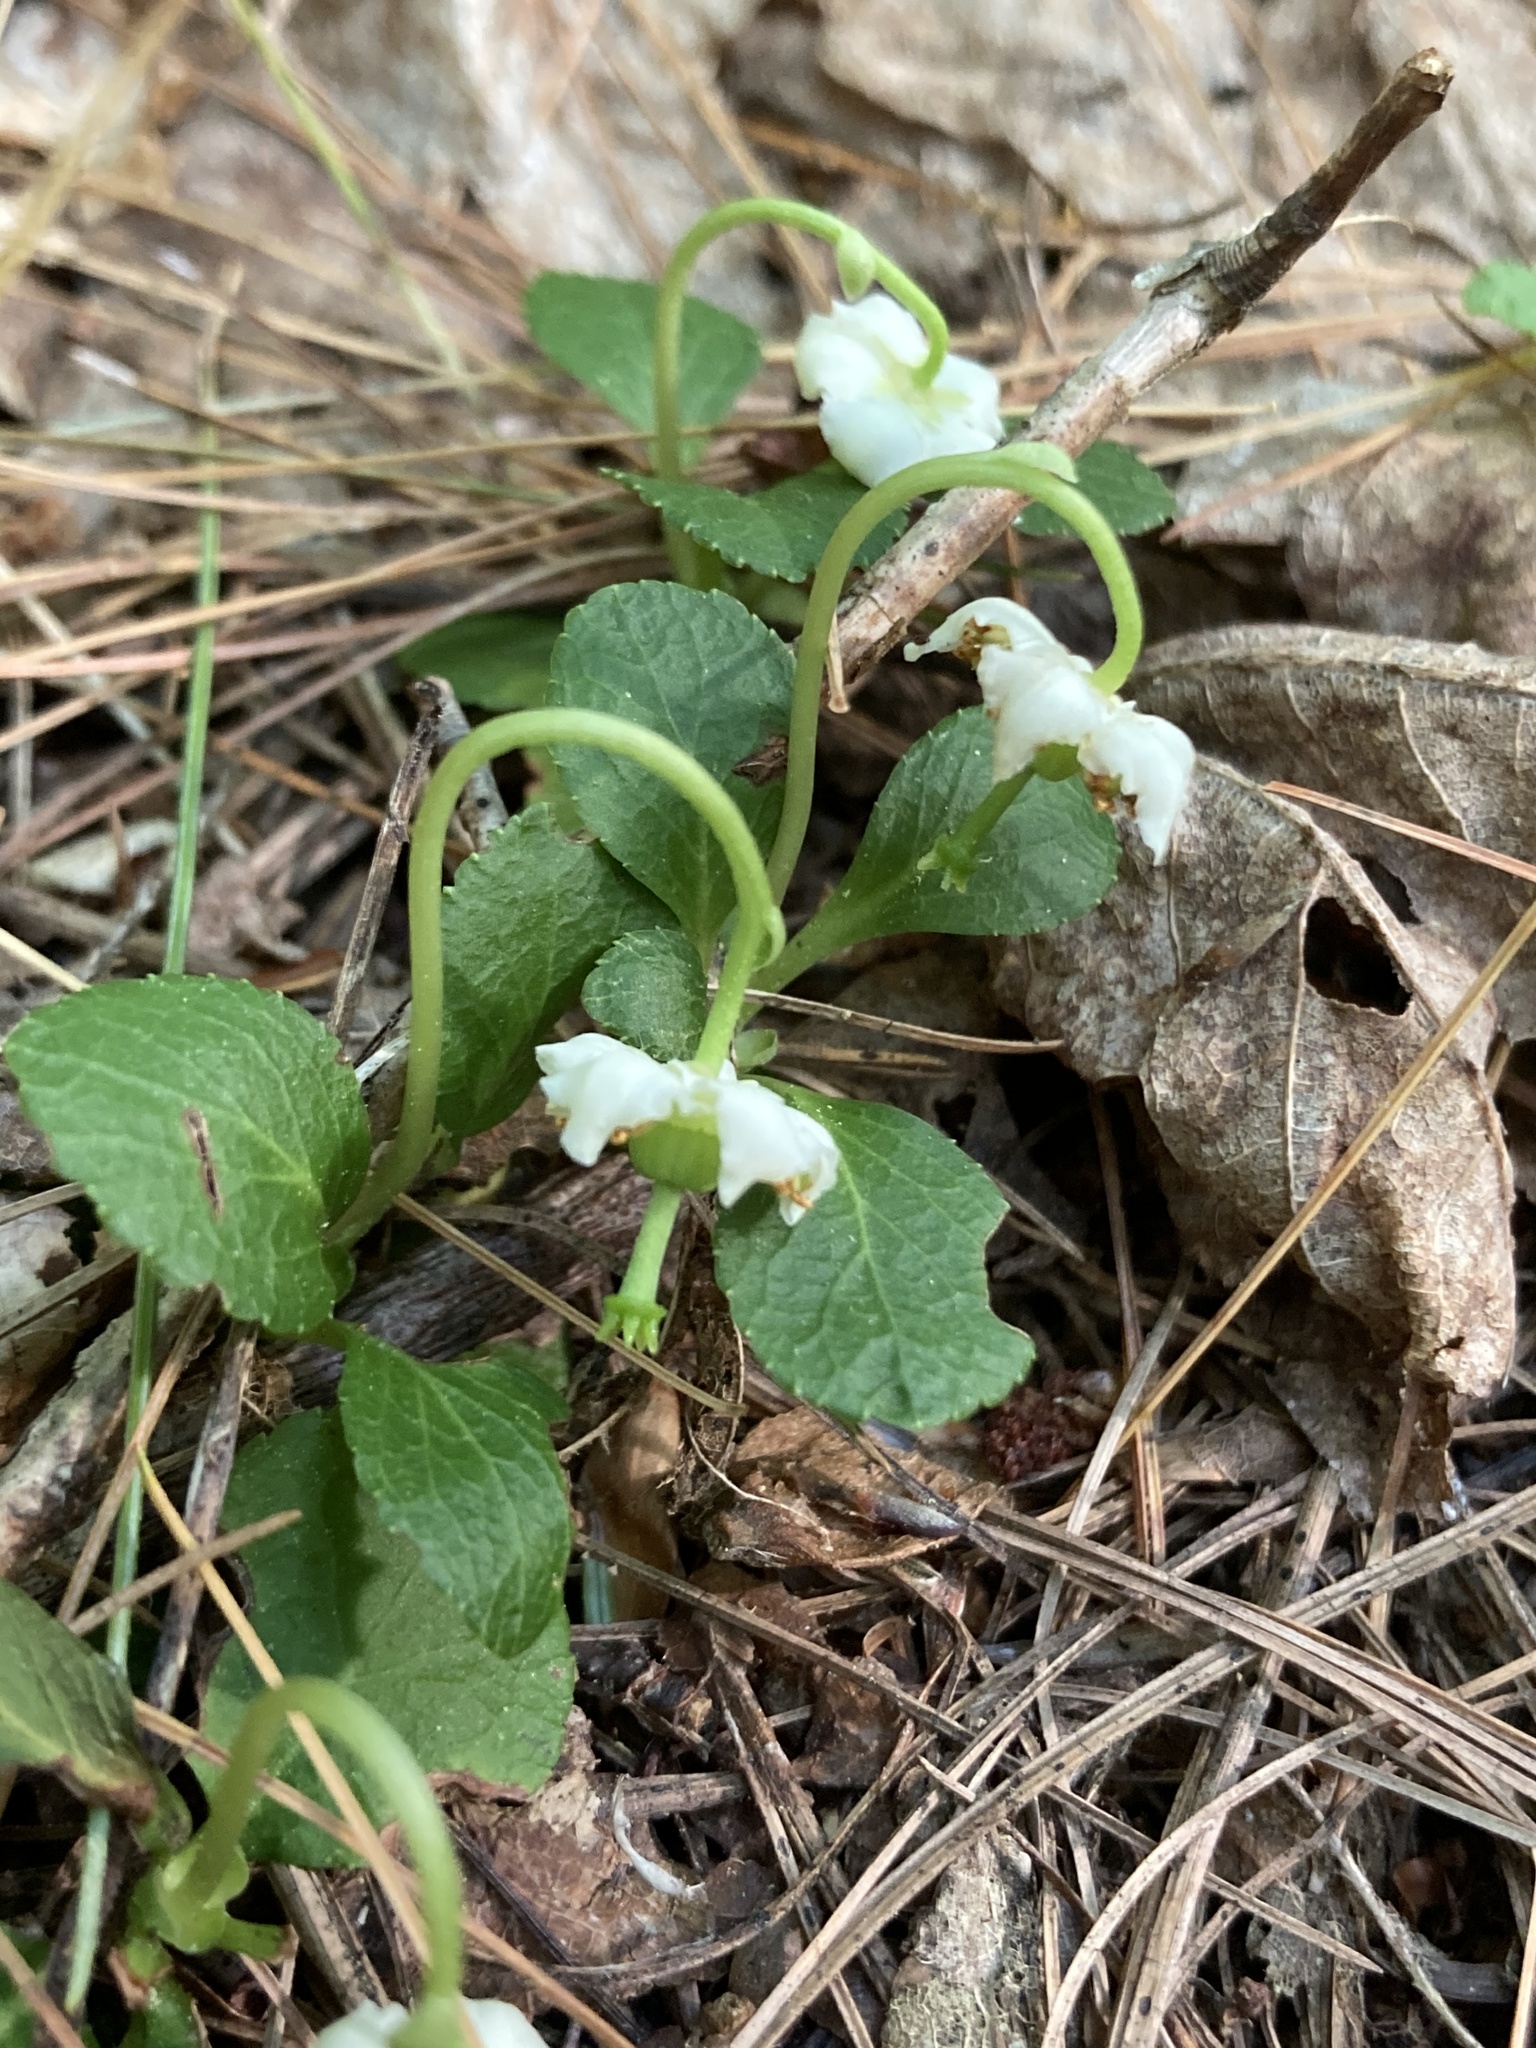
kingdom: Plantae
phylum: Tracheophyta
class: Magnoliopsida
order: Ericales
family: Ericaceae
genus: Moneses
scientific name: Moneses uniflora
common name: One-flowered wintergreen
